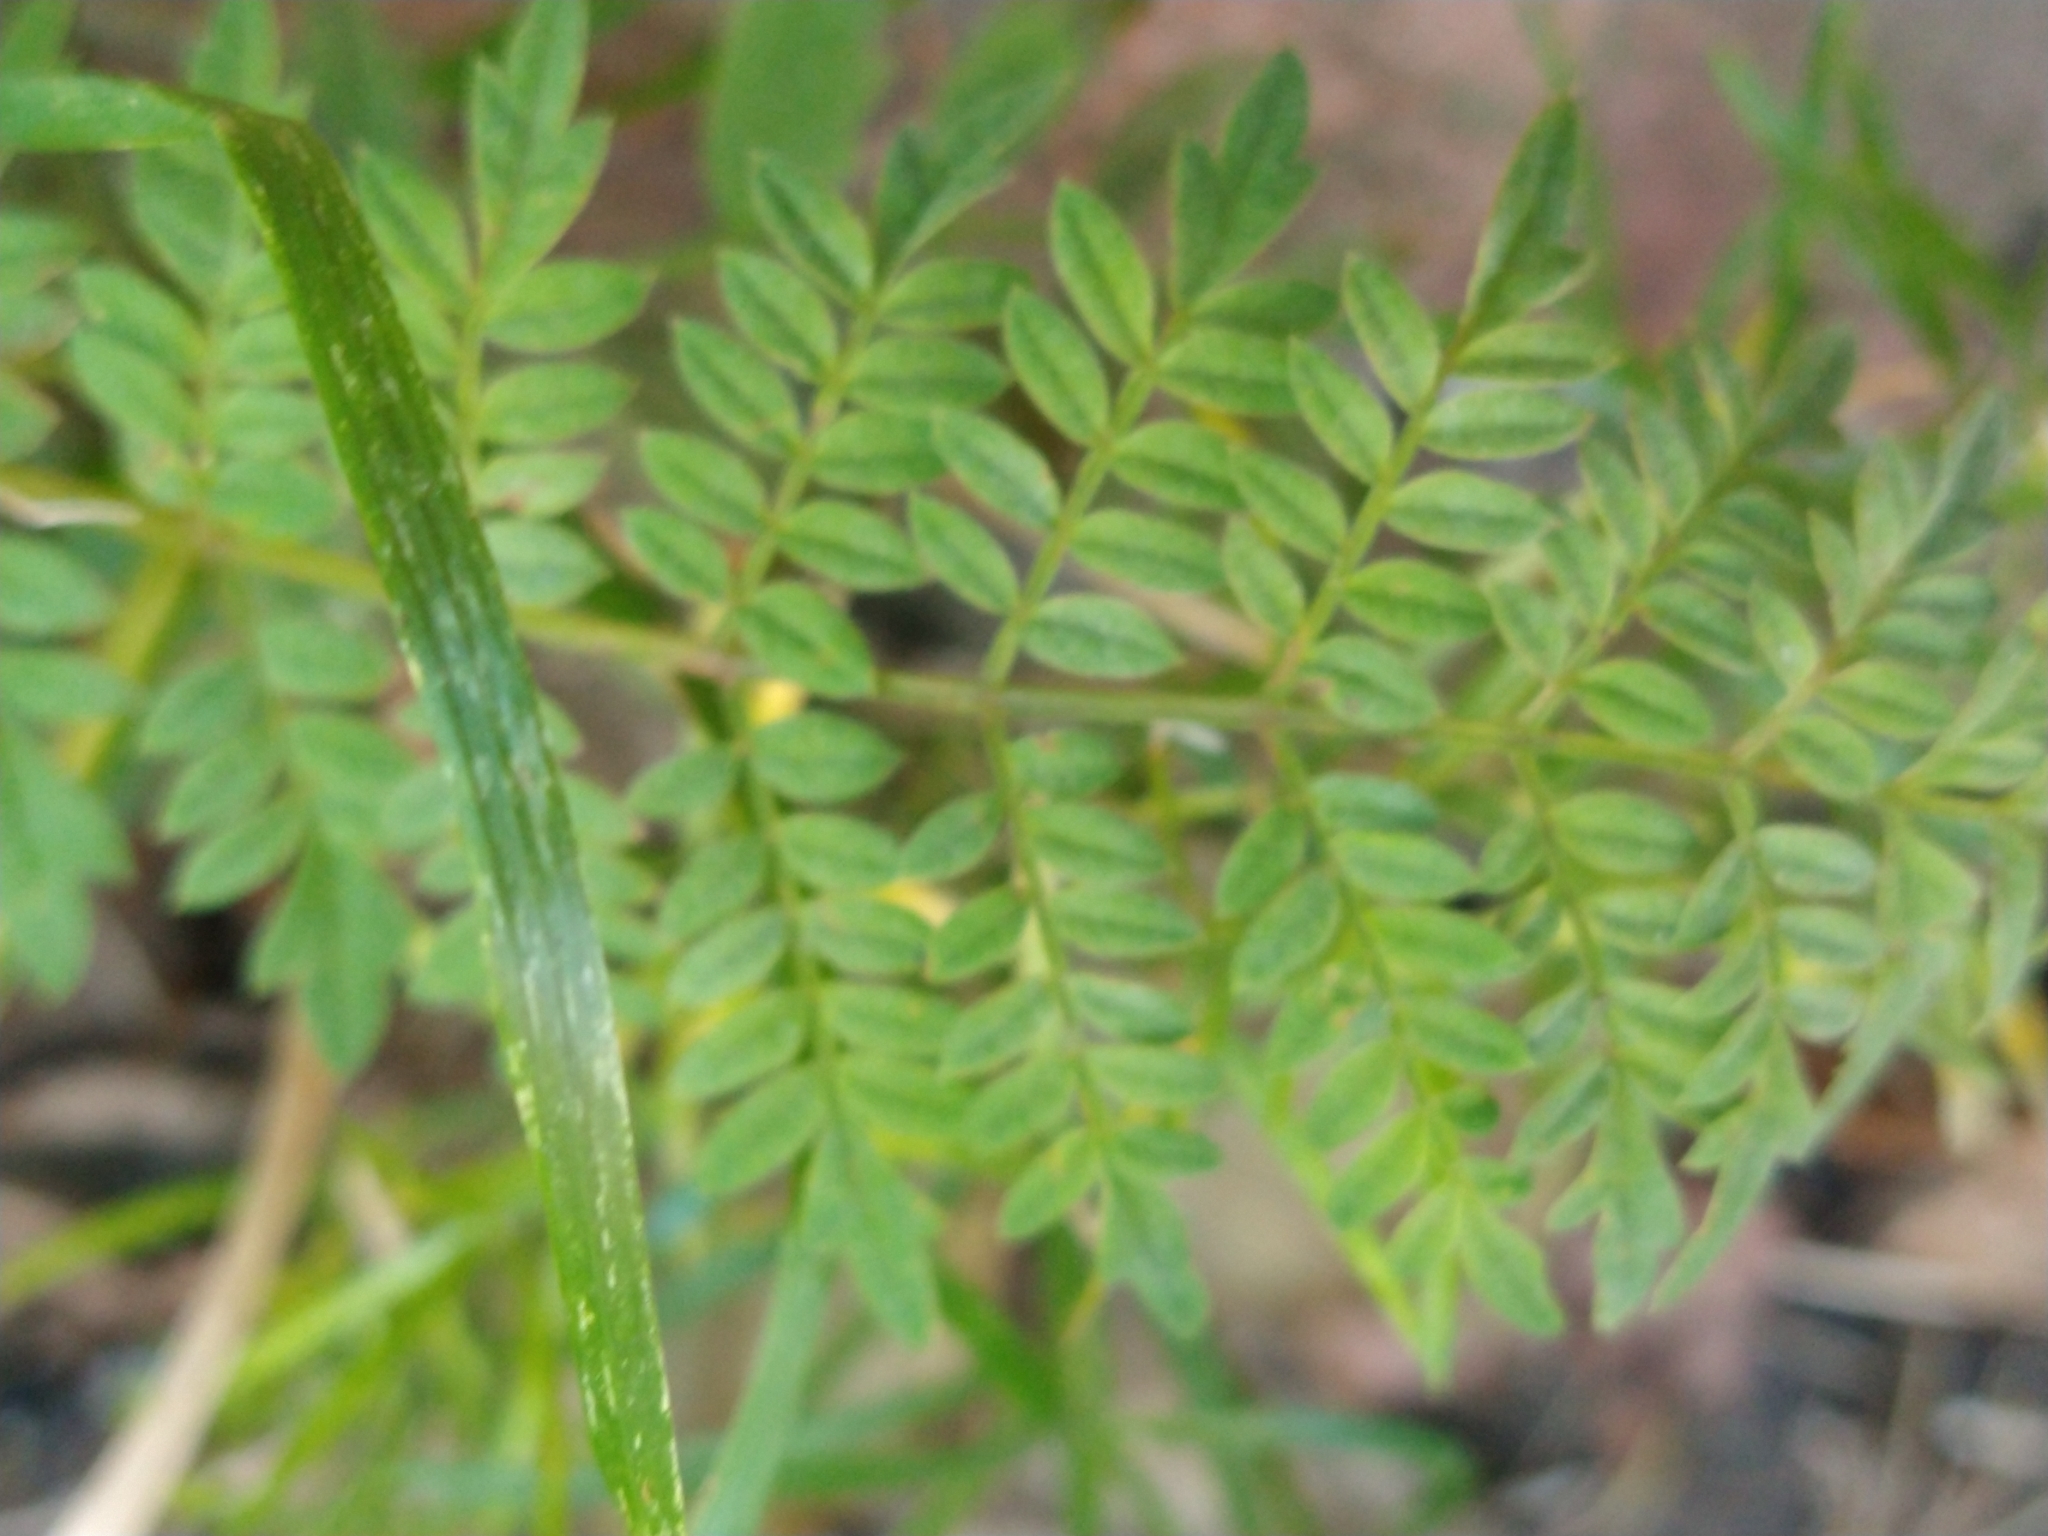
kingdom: Plantae
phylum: Tracheophyta
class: Magnoliopsida
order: Lamiales
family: Bignoniaceae
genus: Jacaranda
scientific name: Jacaranda mimosifolia
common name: Black poui
